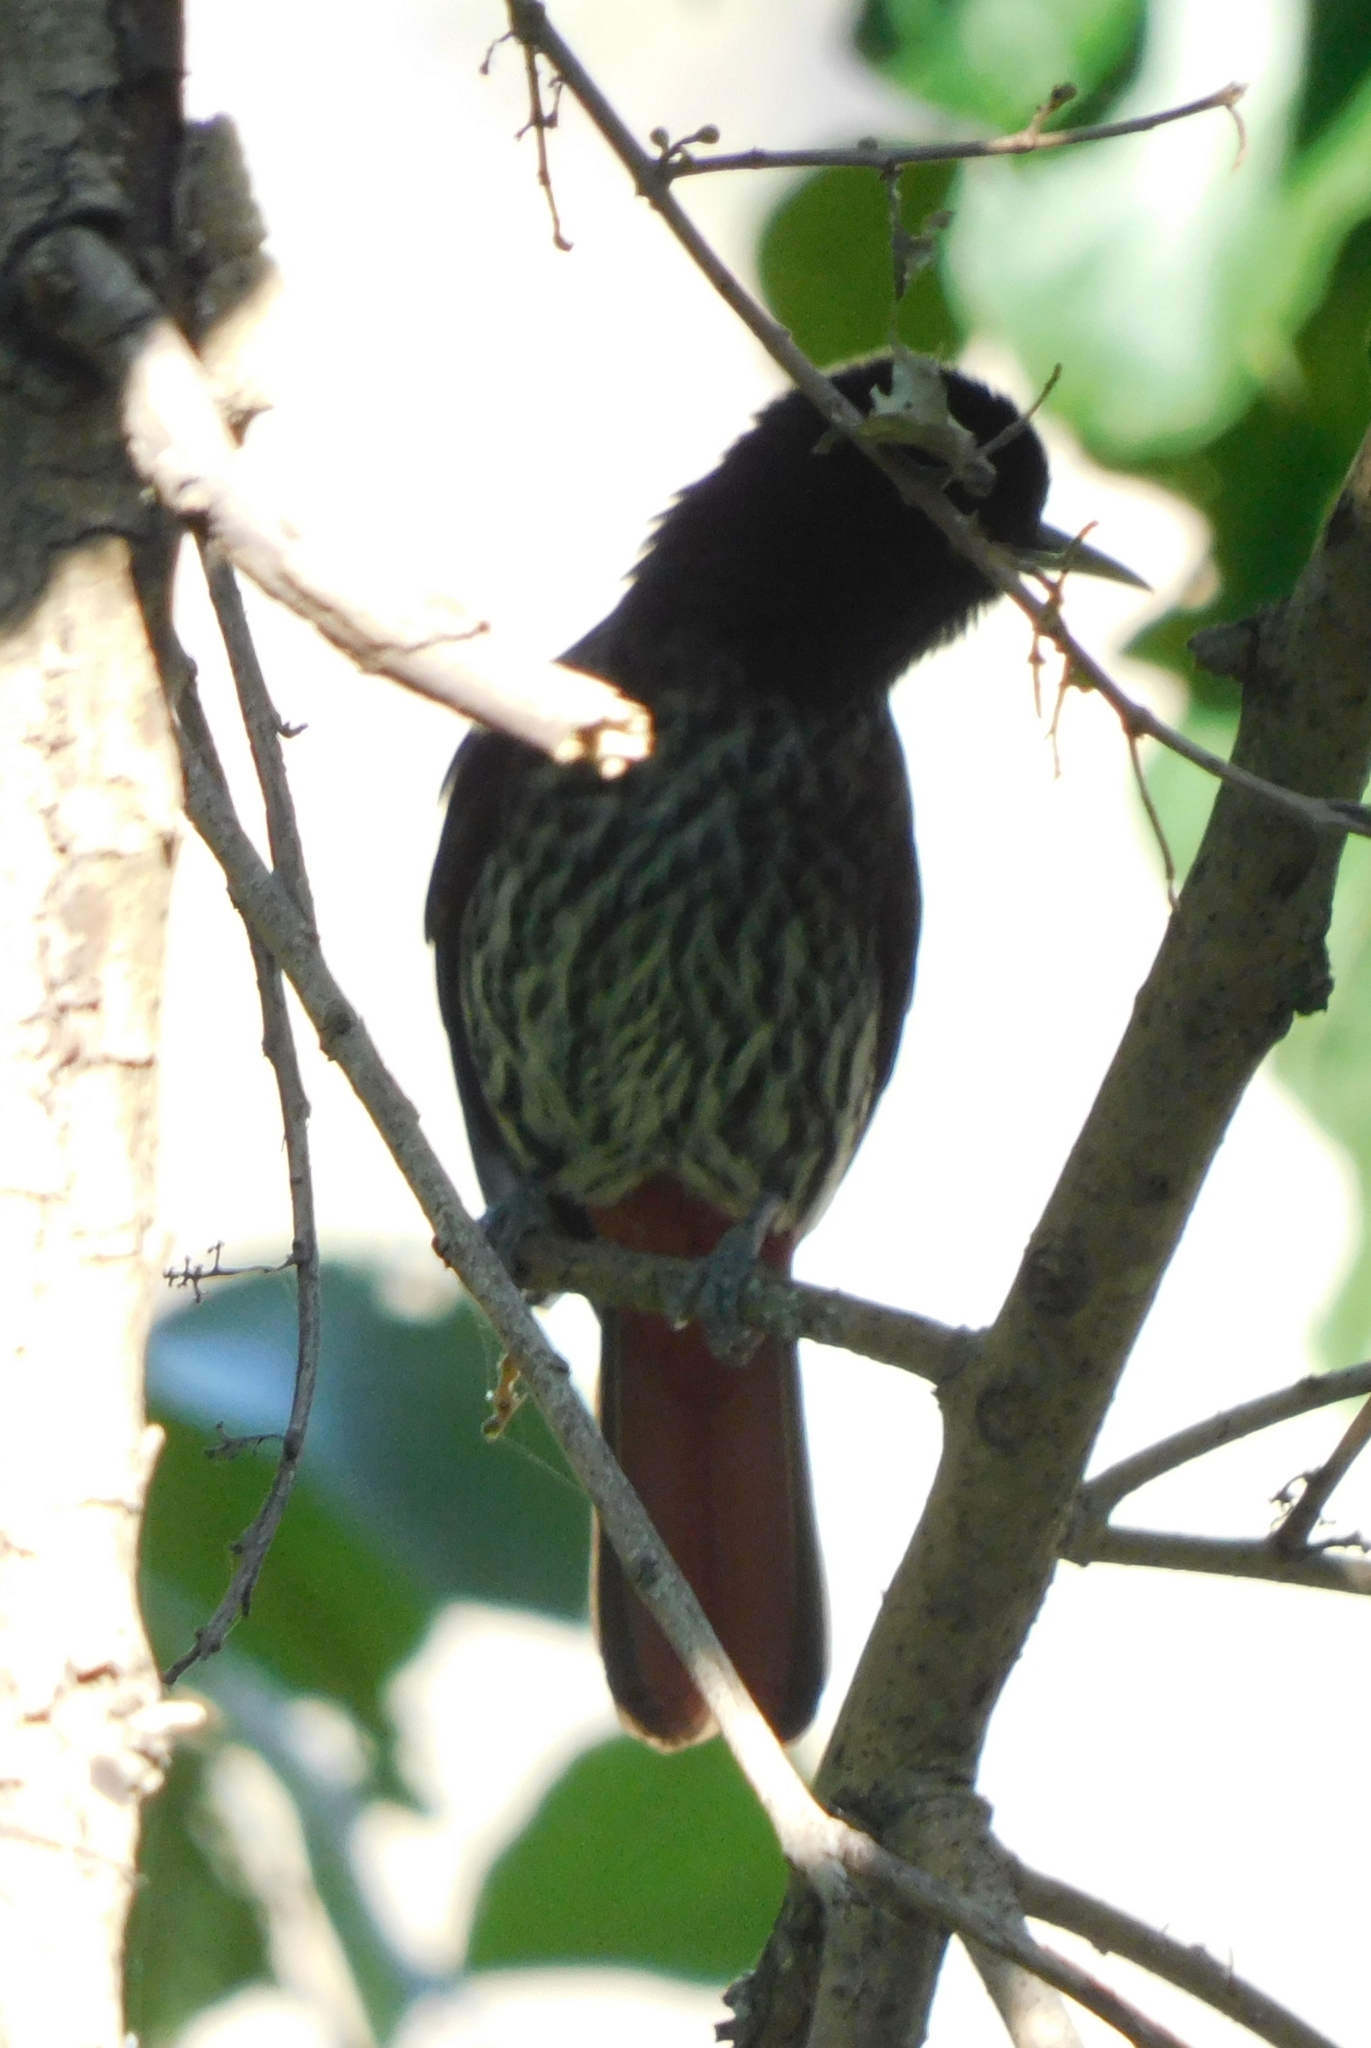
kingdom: Animalia
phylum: Chordata
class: Aves
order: Passeriformes
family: Oriolidae
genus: Oriolus
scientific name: Oriolus traillii
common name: Maroon oriole
